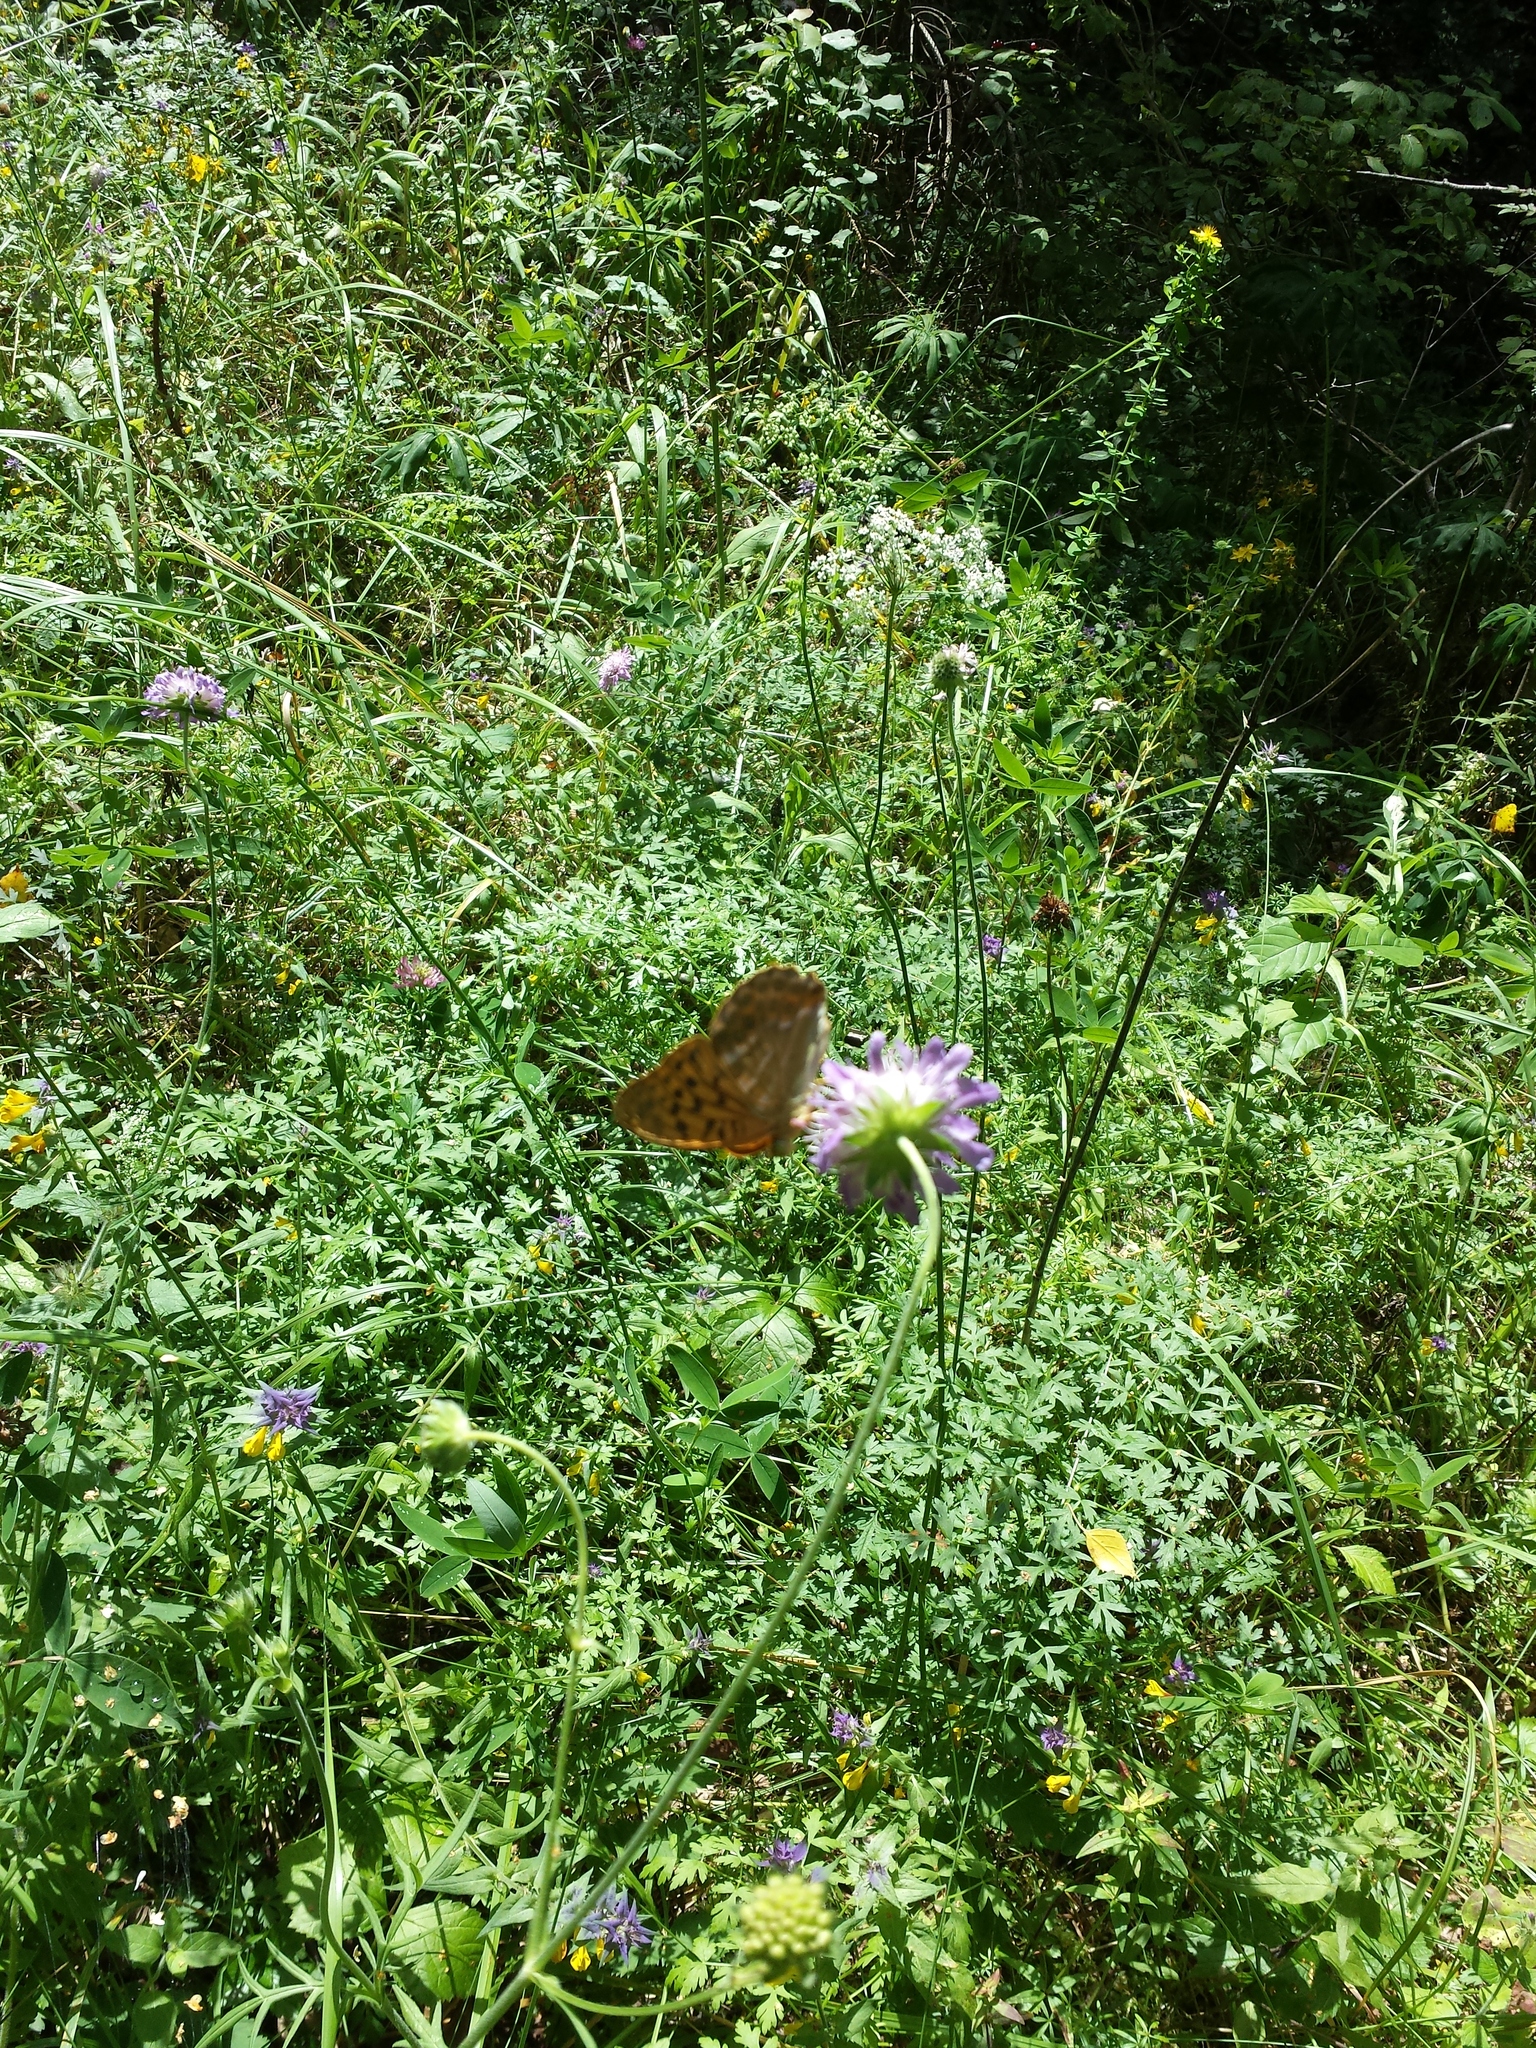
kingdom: Animalia
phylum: Arthropoda
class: Insecta
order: Lepidoptera
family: Nymphalidae
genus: Argynnis
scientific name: Argynnis paphia
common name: Silver-washed fritillary
